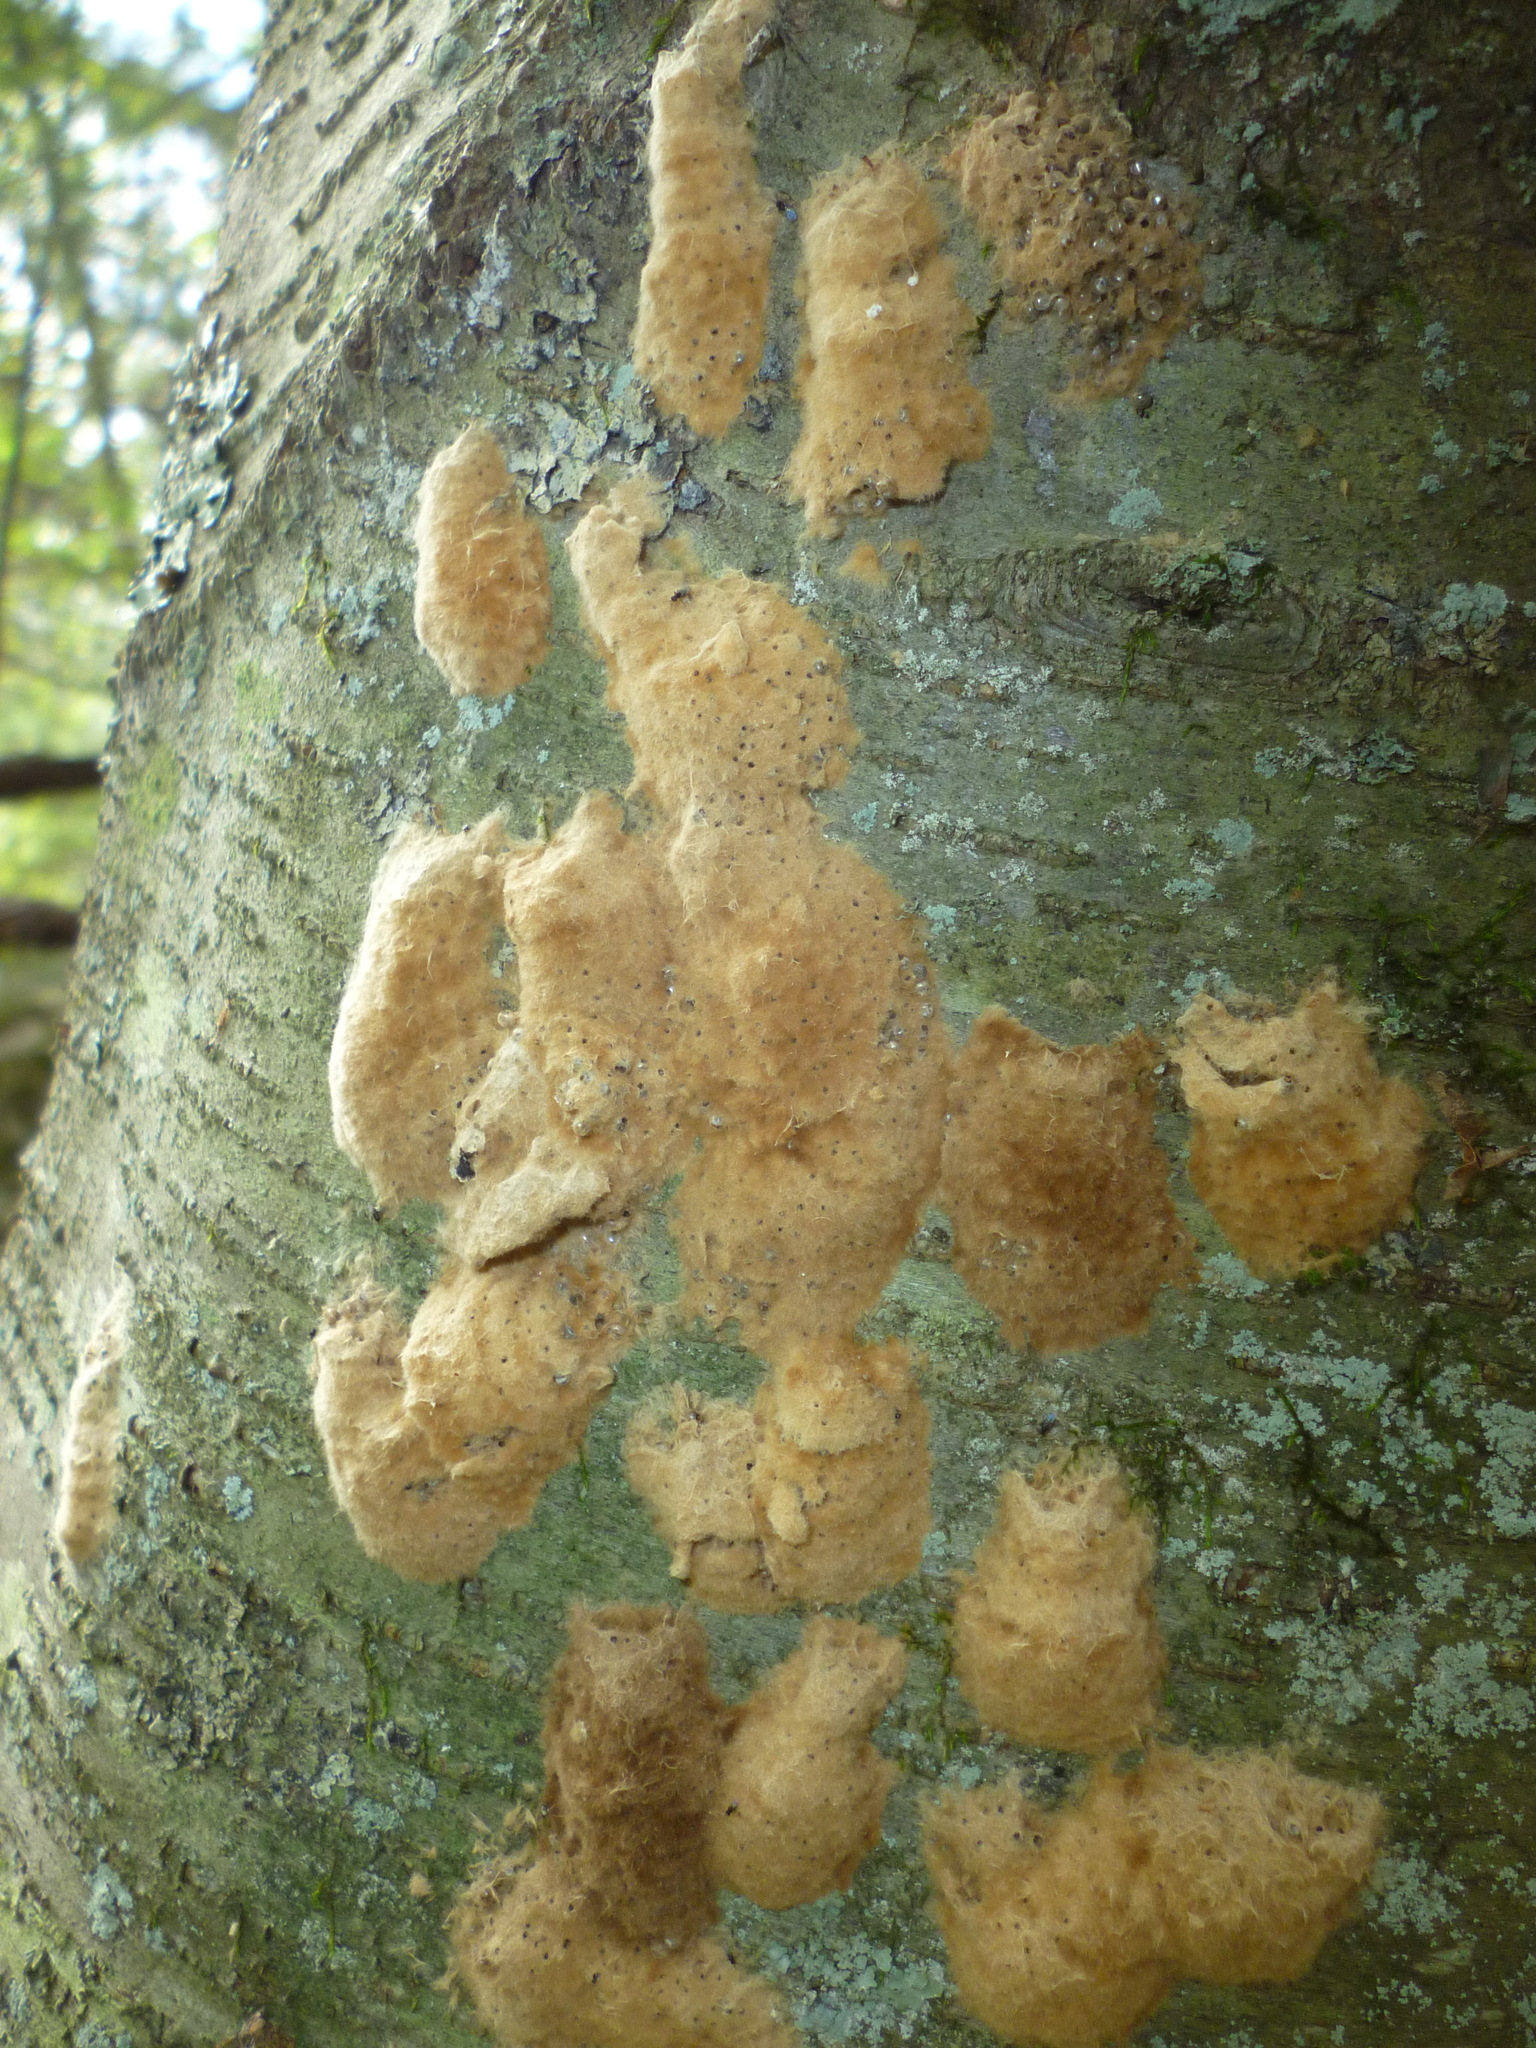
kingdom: Animalia
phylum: Arthropoda
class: Insecta
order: Lepidoptera
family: Erebidae
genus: Lymantria
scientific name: Lymantria dispar
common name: Gypsy moth
